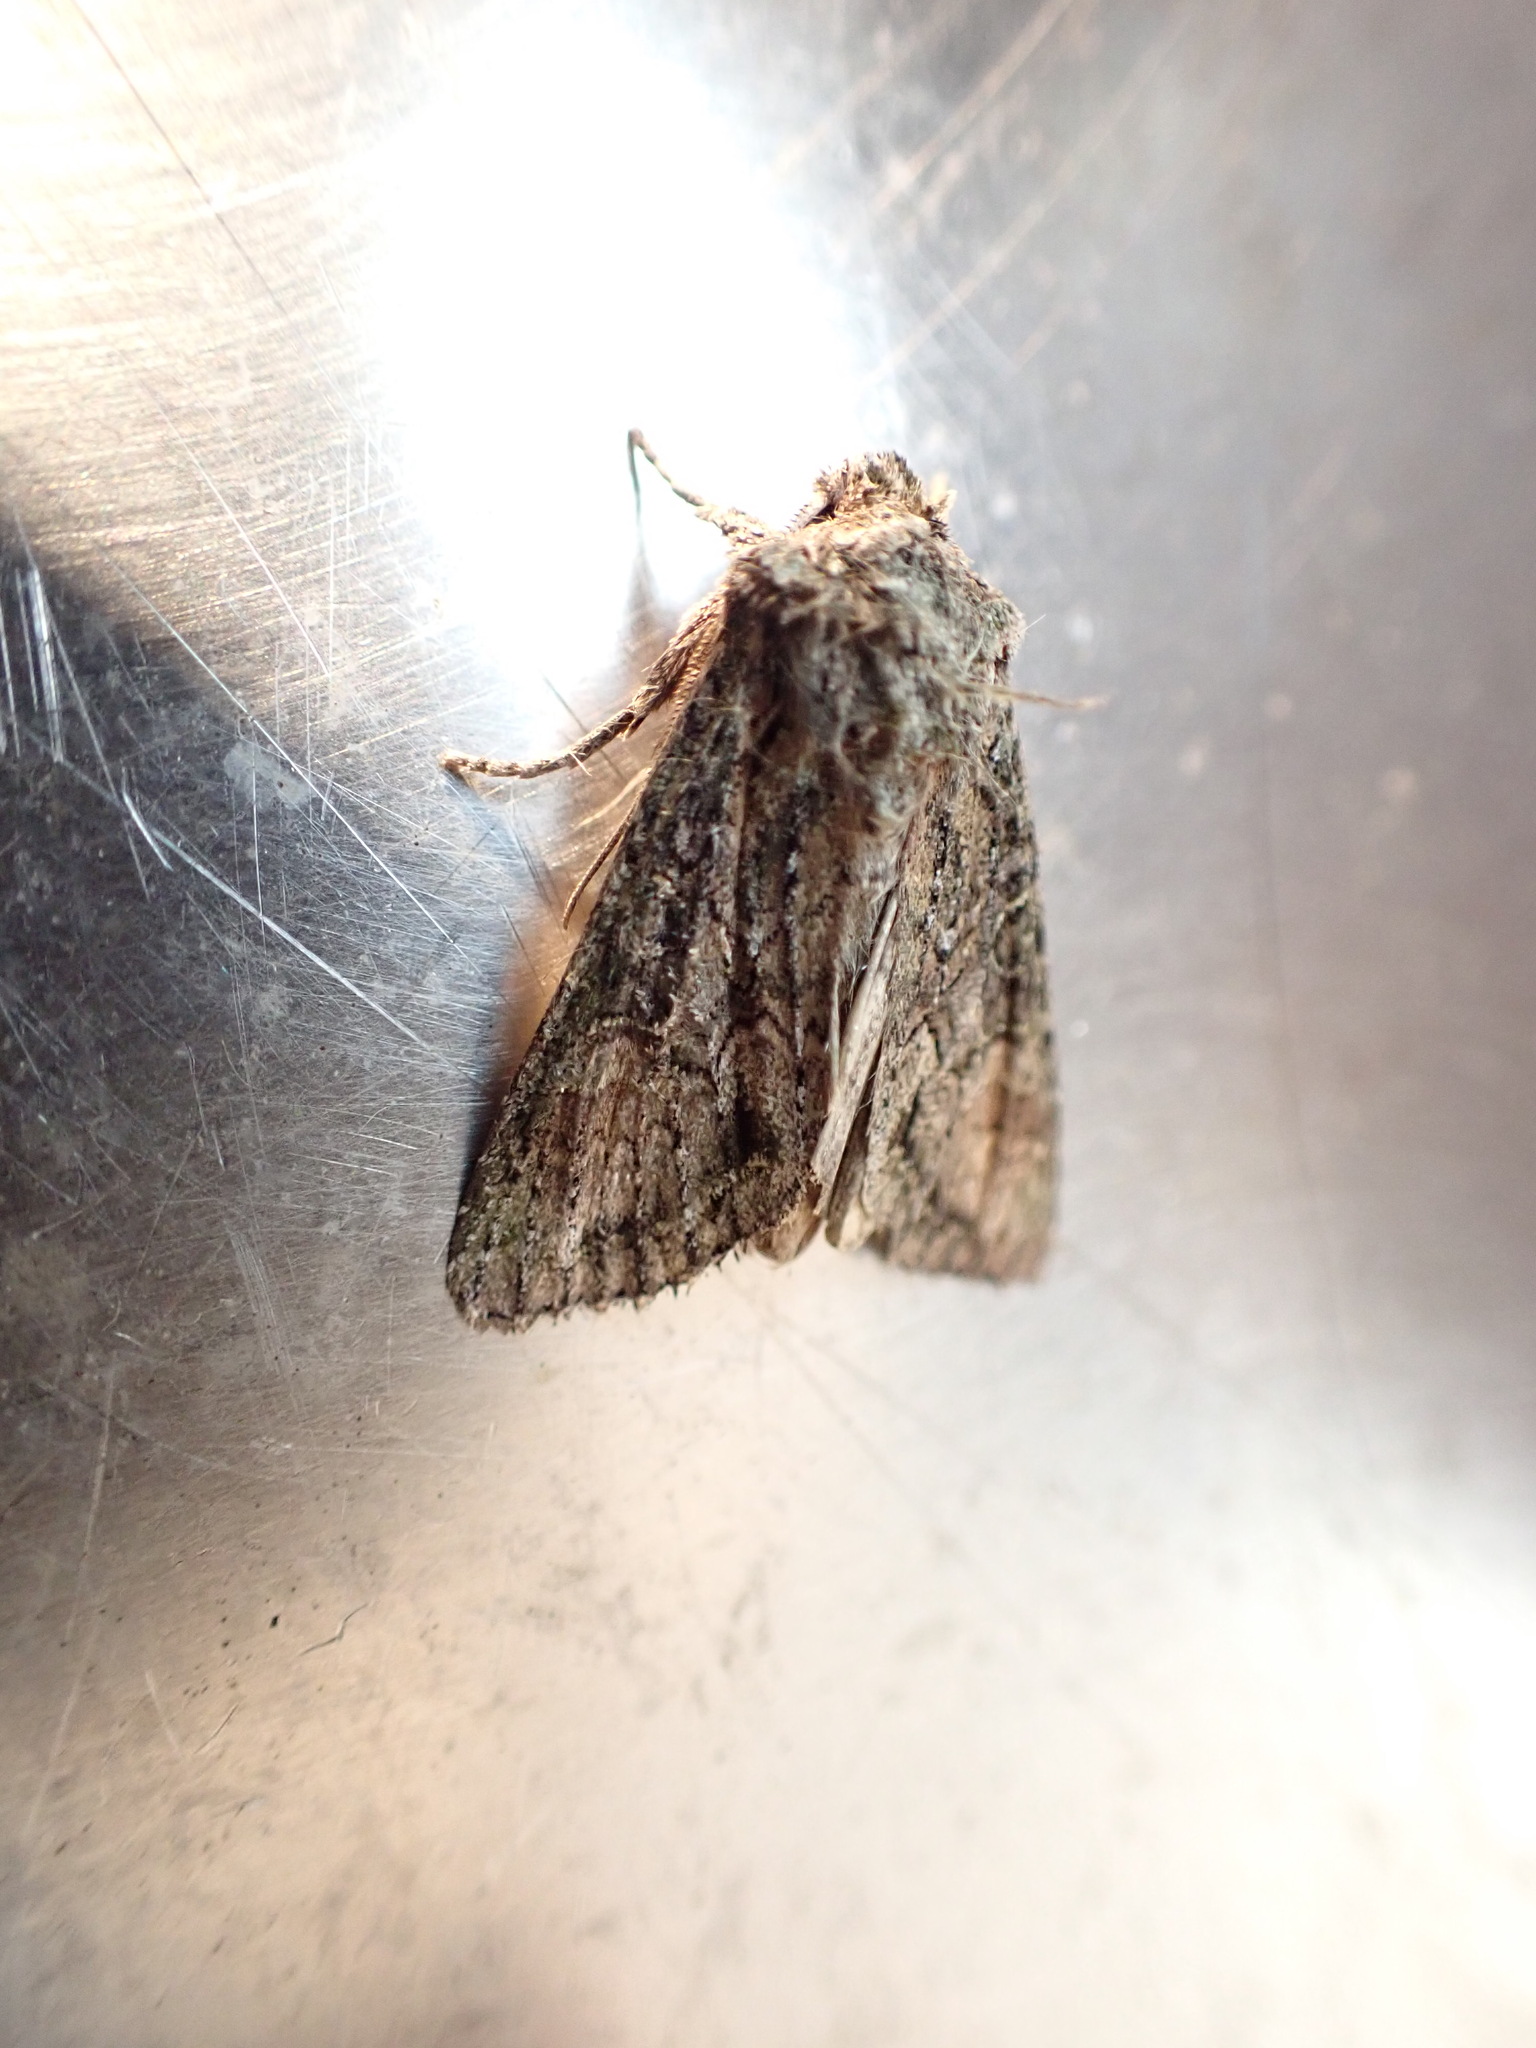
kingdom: Animalia
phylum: Arthropoda
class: Insecta
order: Lepidoptera
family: Noctuidae
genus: Ichneutica
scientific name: Ichneutica mutans
